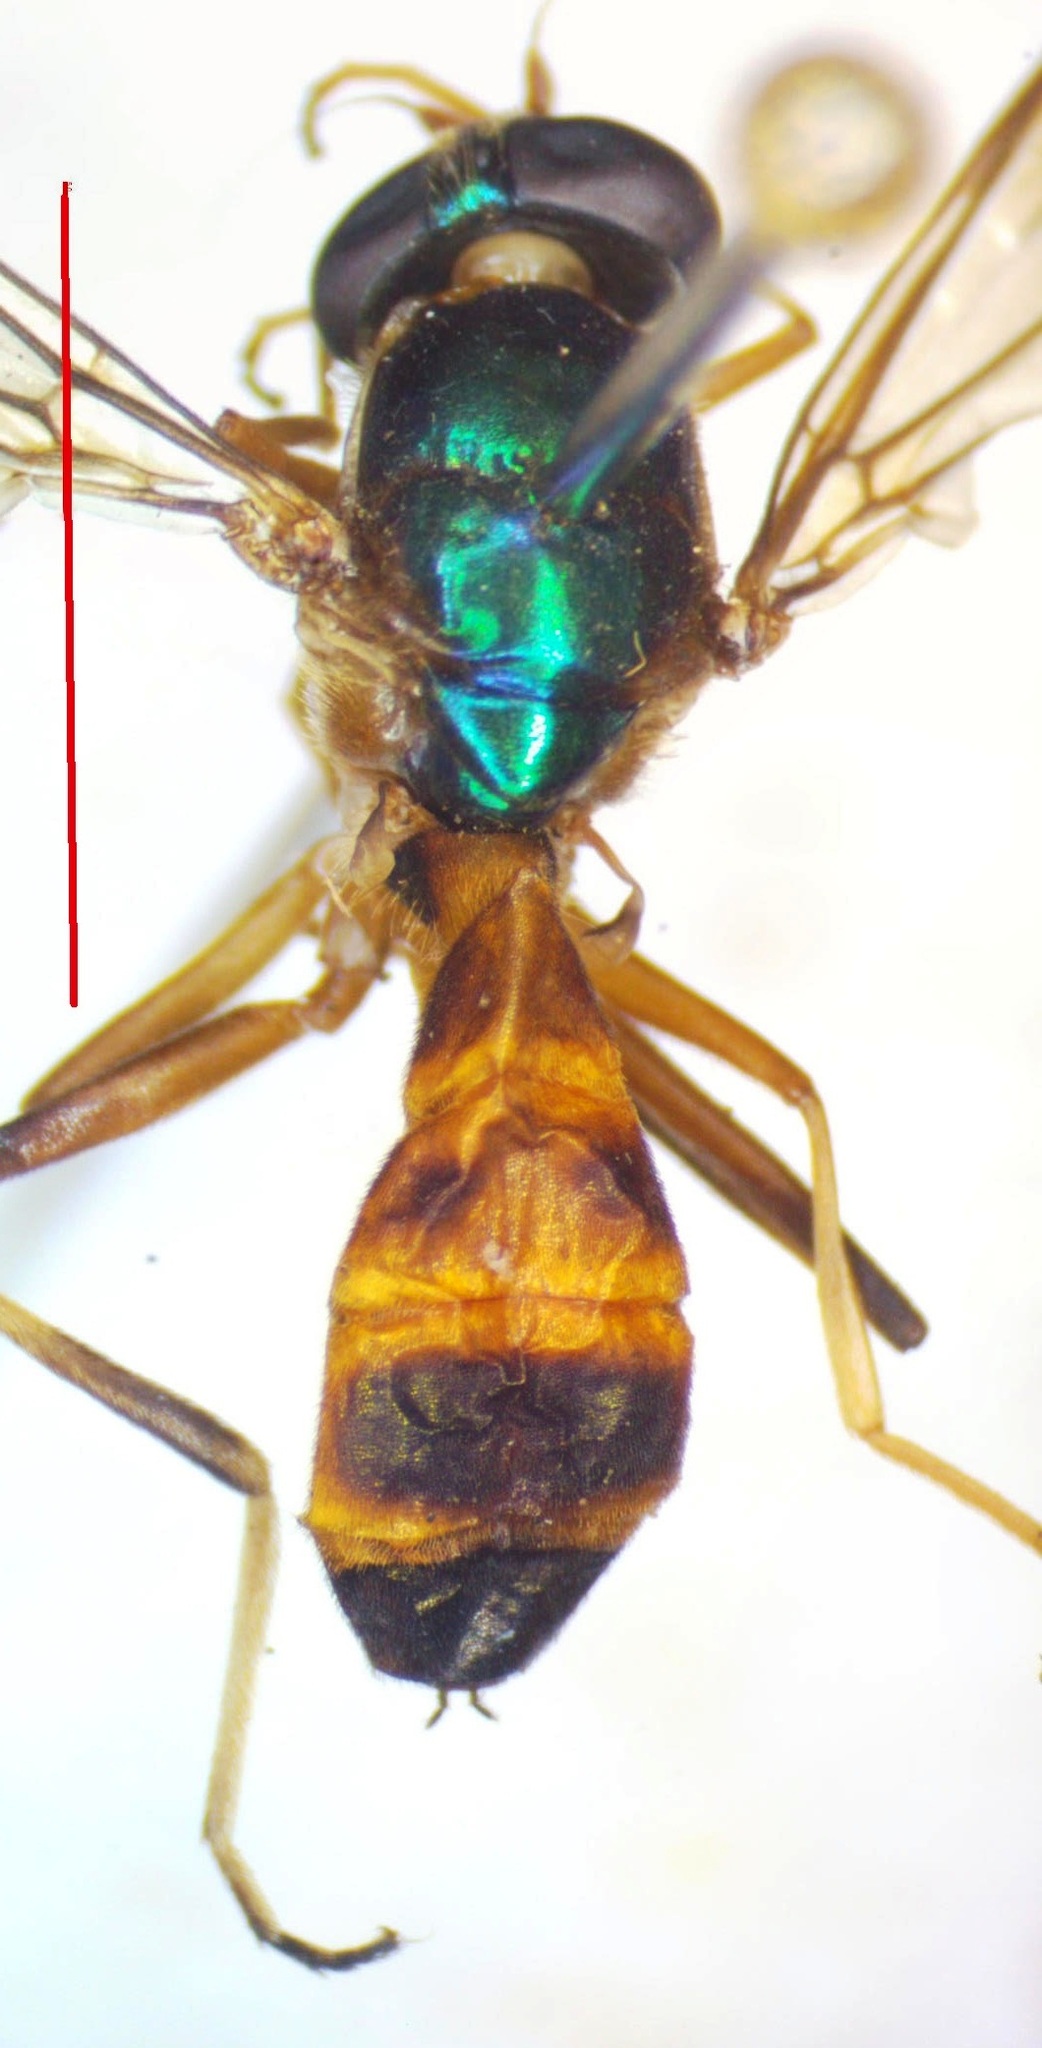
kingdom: Animalia
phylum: Arthropoda
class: Insecta
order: Diptera
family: Stratiomyidae
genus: Merosargus
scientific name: Merosargus bequaerti
